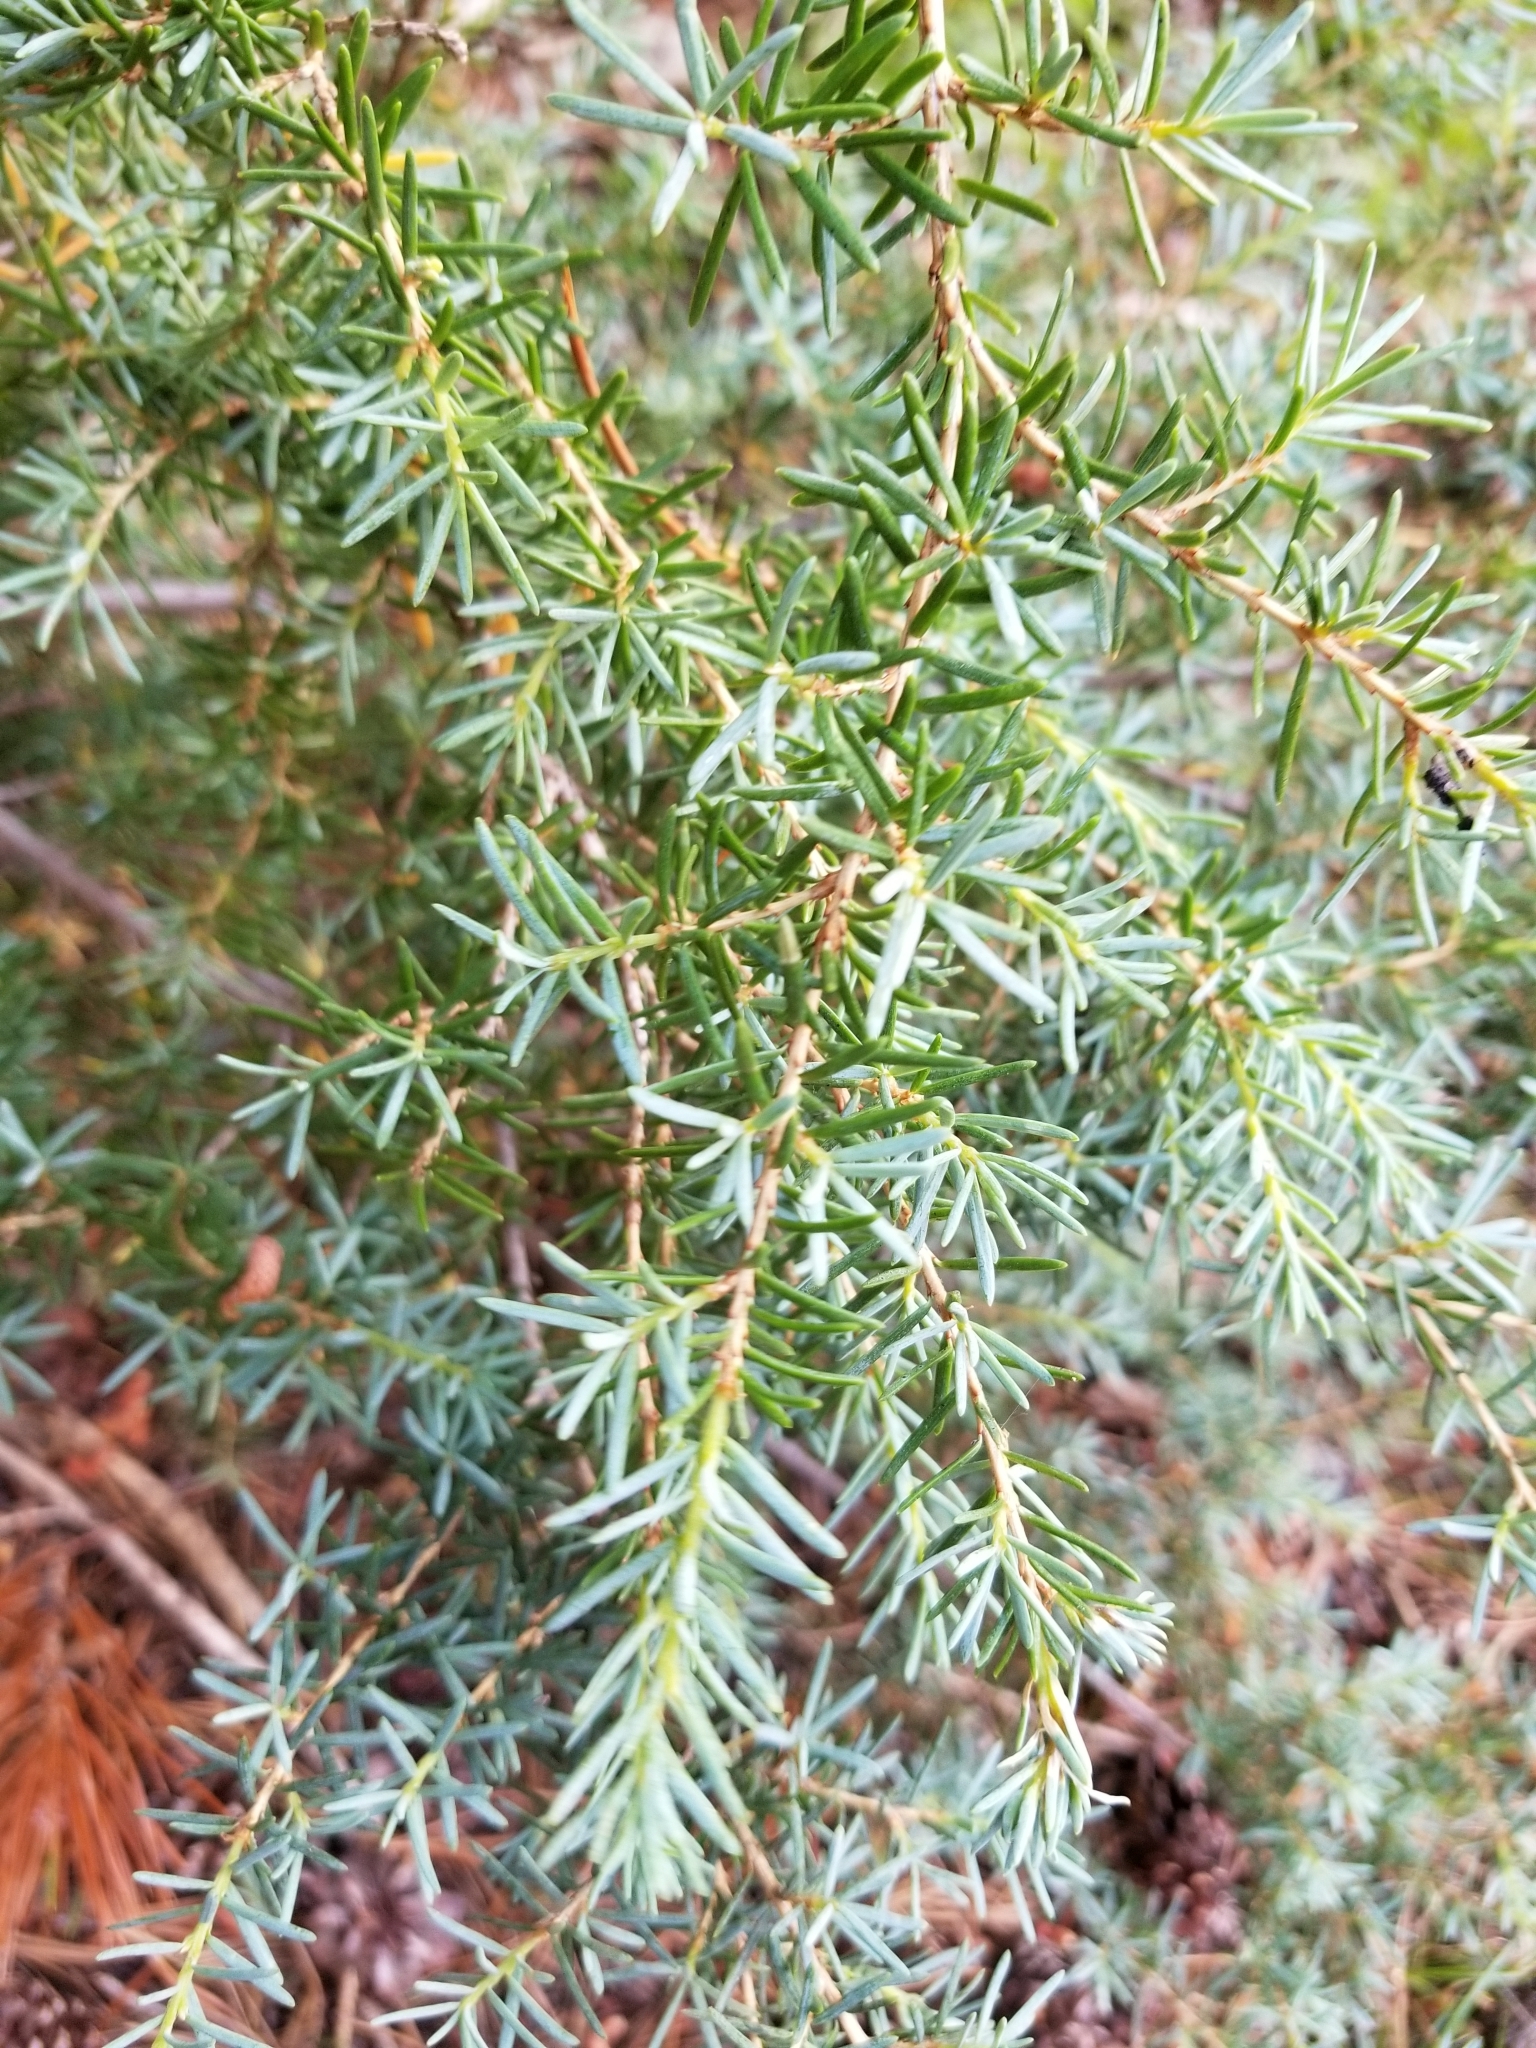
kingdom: Plantae
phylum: Tracheophyta
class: Pinopsida
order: Pinales
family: Pinaceae
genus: Tsuga
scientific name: Tsuga mertensiana
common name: Mountain hemlock
